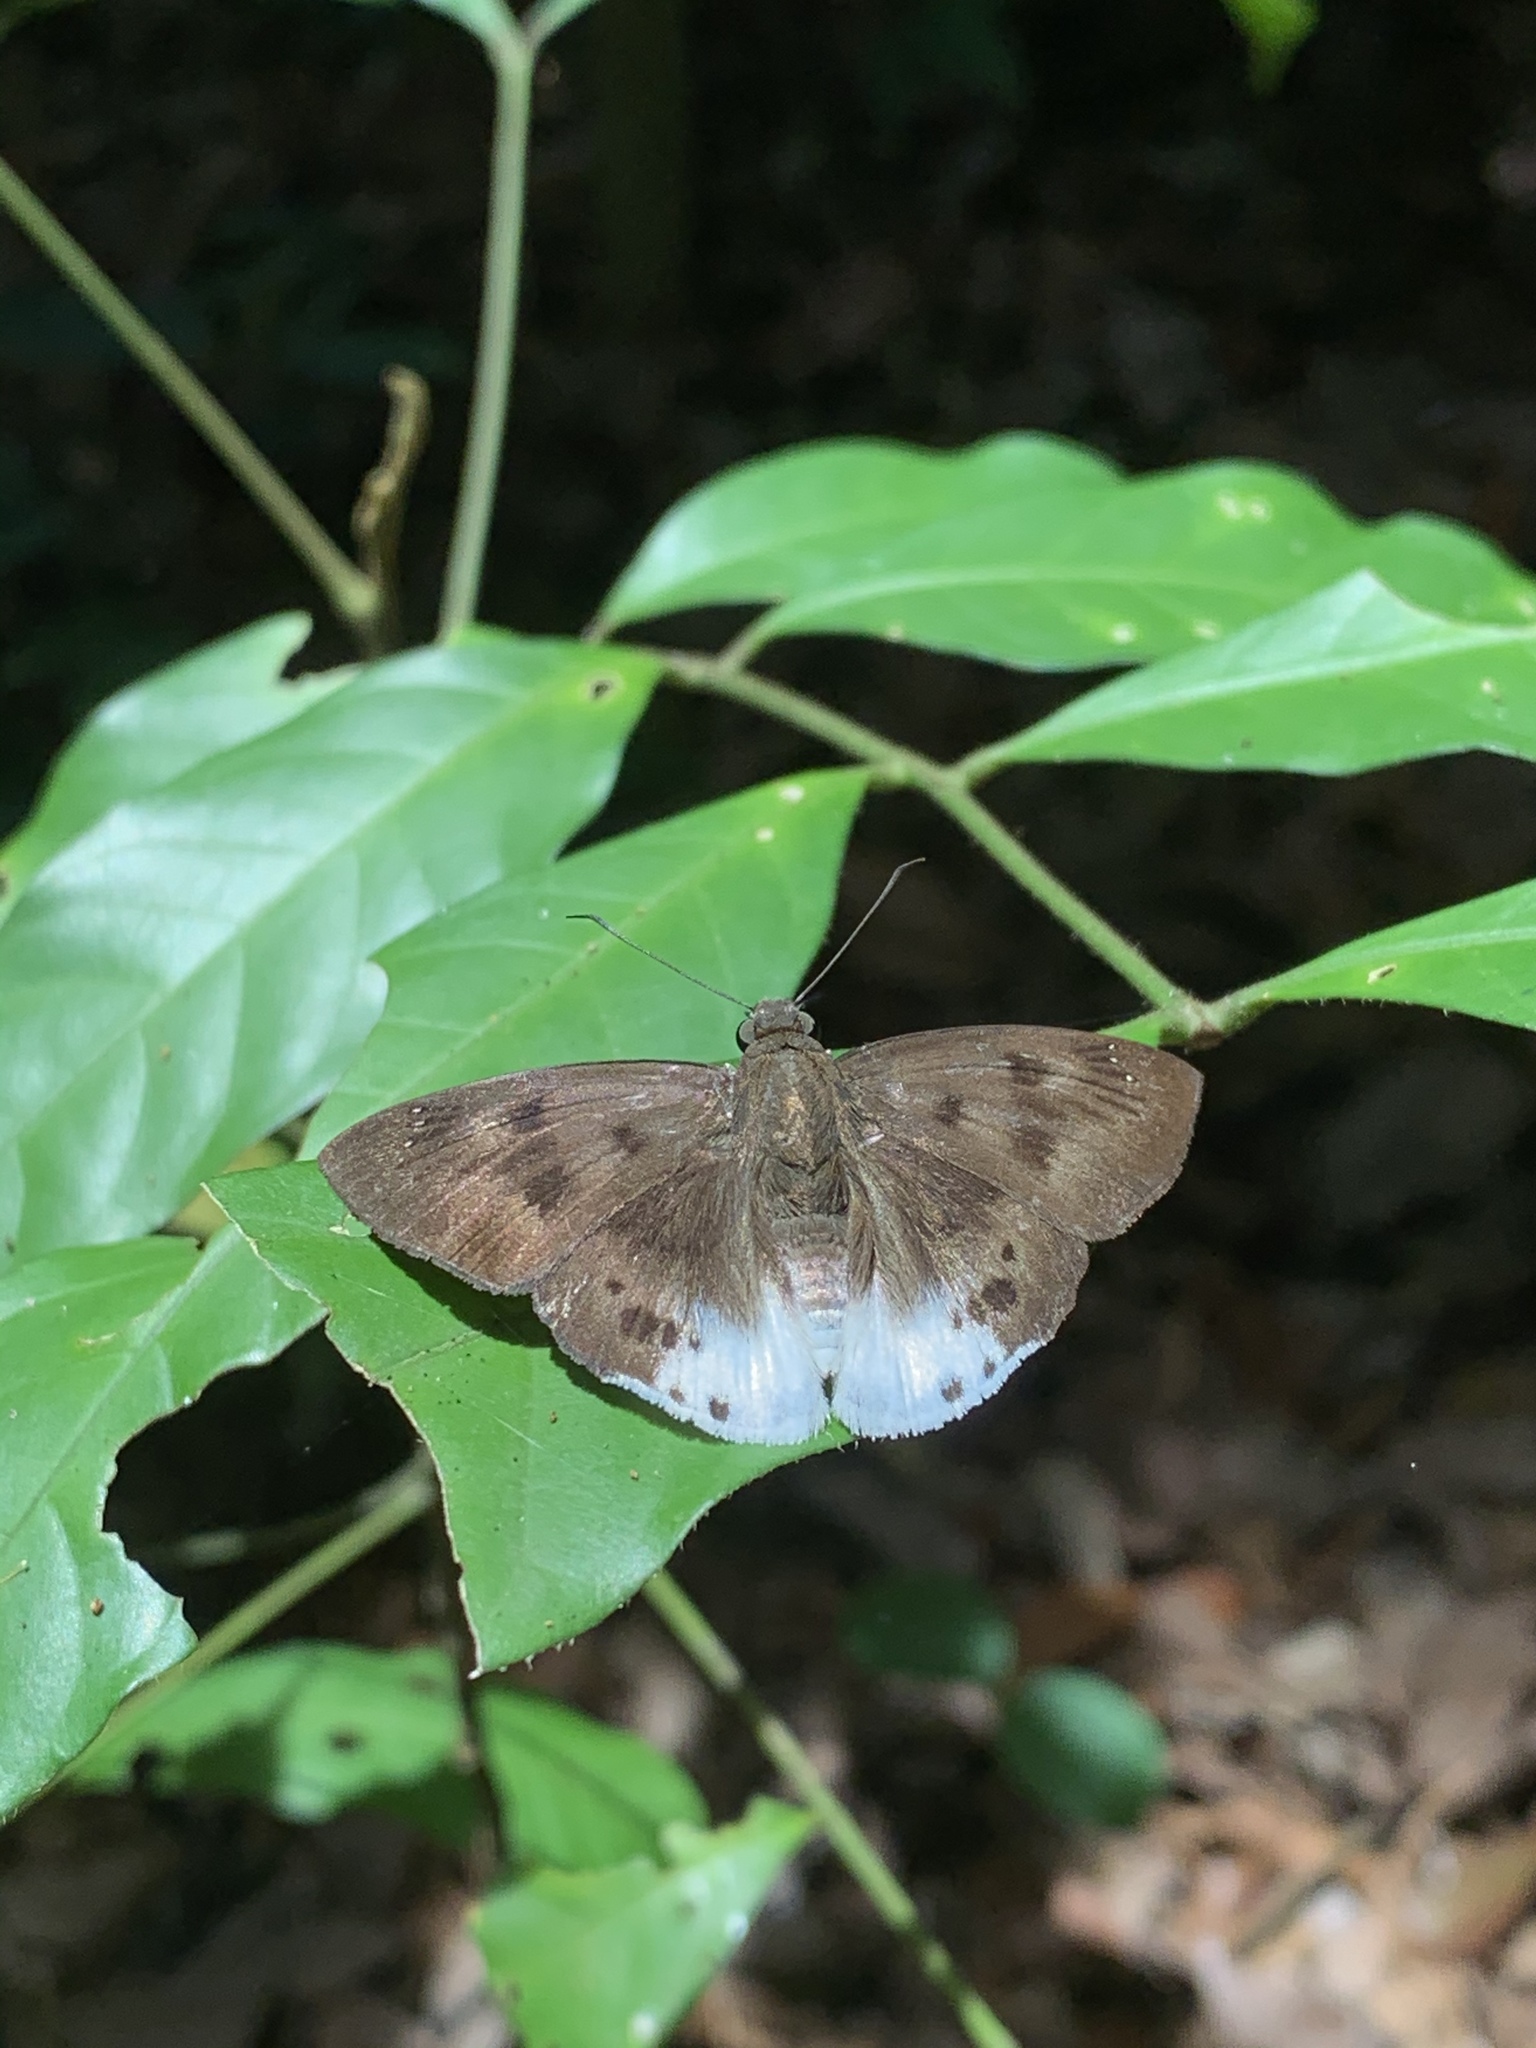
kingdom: Animalia
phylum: Arthropoda
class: Insecta
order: Lepidoptera
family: Hesperiidae
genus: Tagiades
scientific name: Tagiades gana
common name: Suffused snow flat
